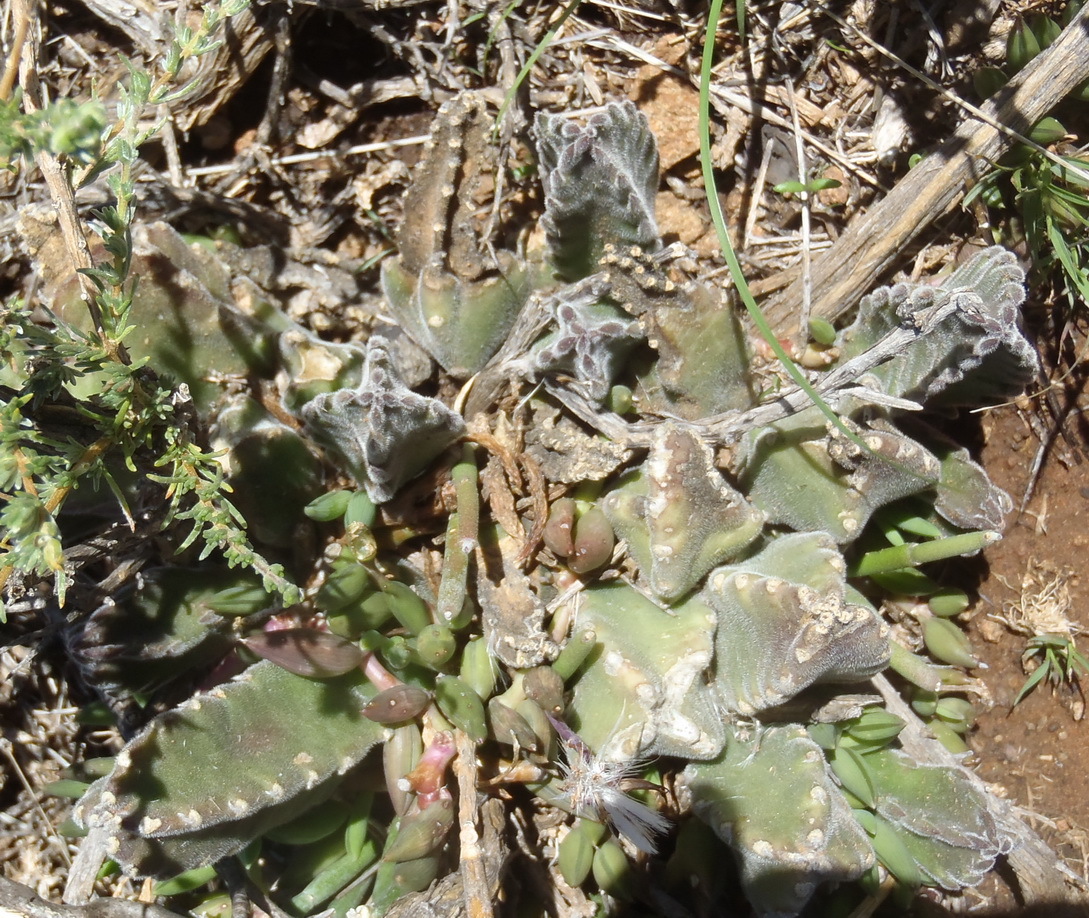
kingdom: Plantae
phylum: Tracheophyta
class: Magnoliopsida
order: Gentianales
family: Apocynaceae
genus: Stapelia
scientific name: Stapelia grandiflora
